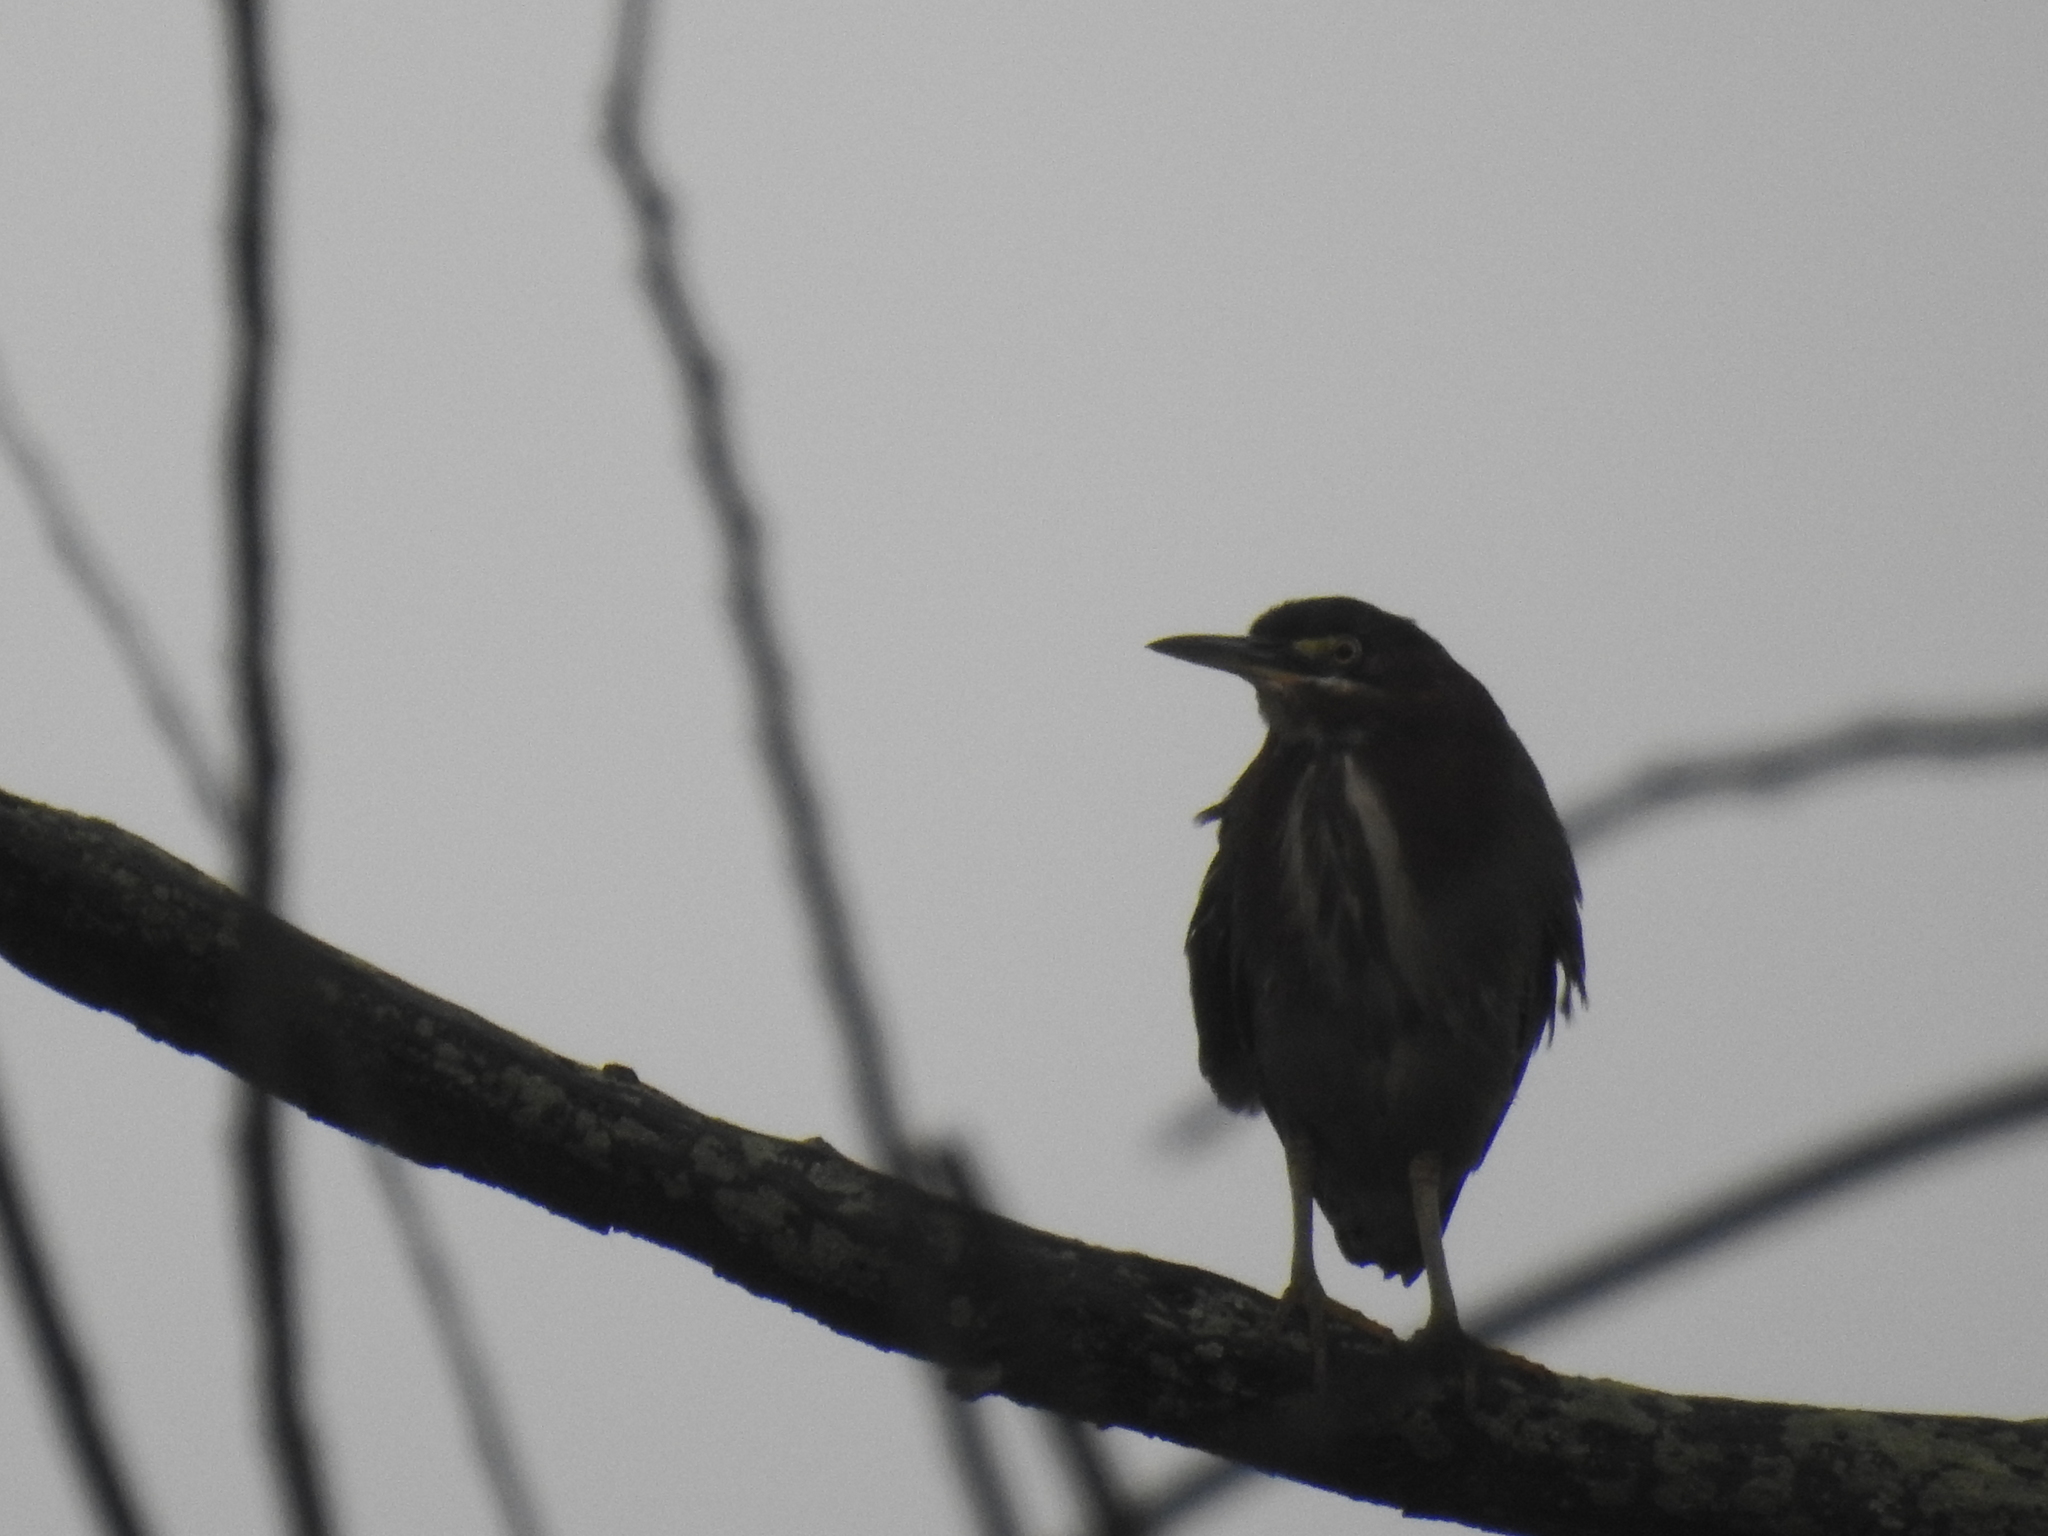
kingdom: Animalia
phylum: Chordata
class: Aves
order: Pelecaniformes
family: Ardeidae
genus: Butorides
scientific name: Butorides virescens
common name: Green heron
